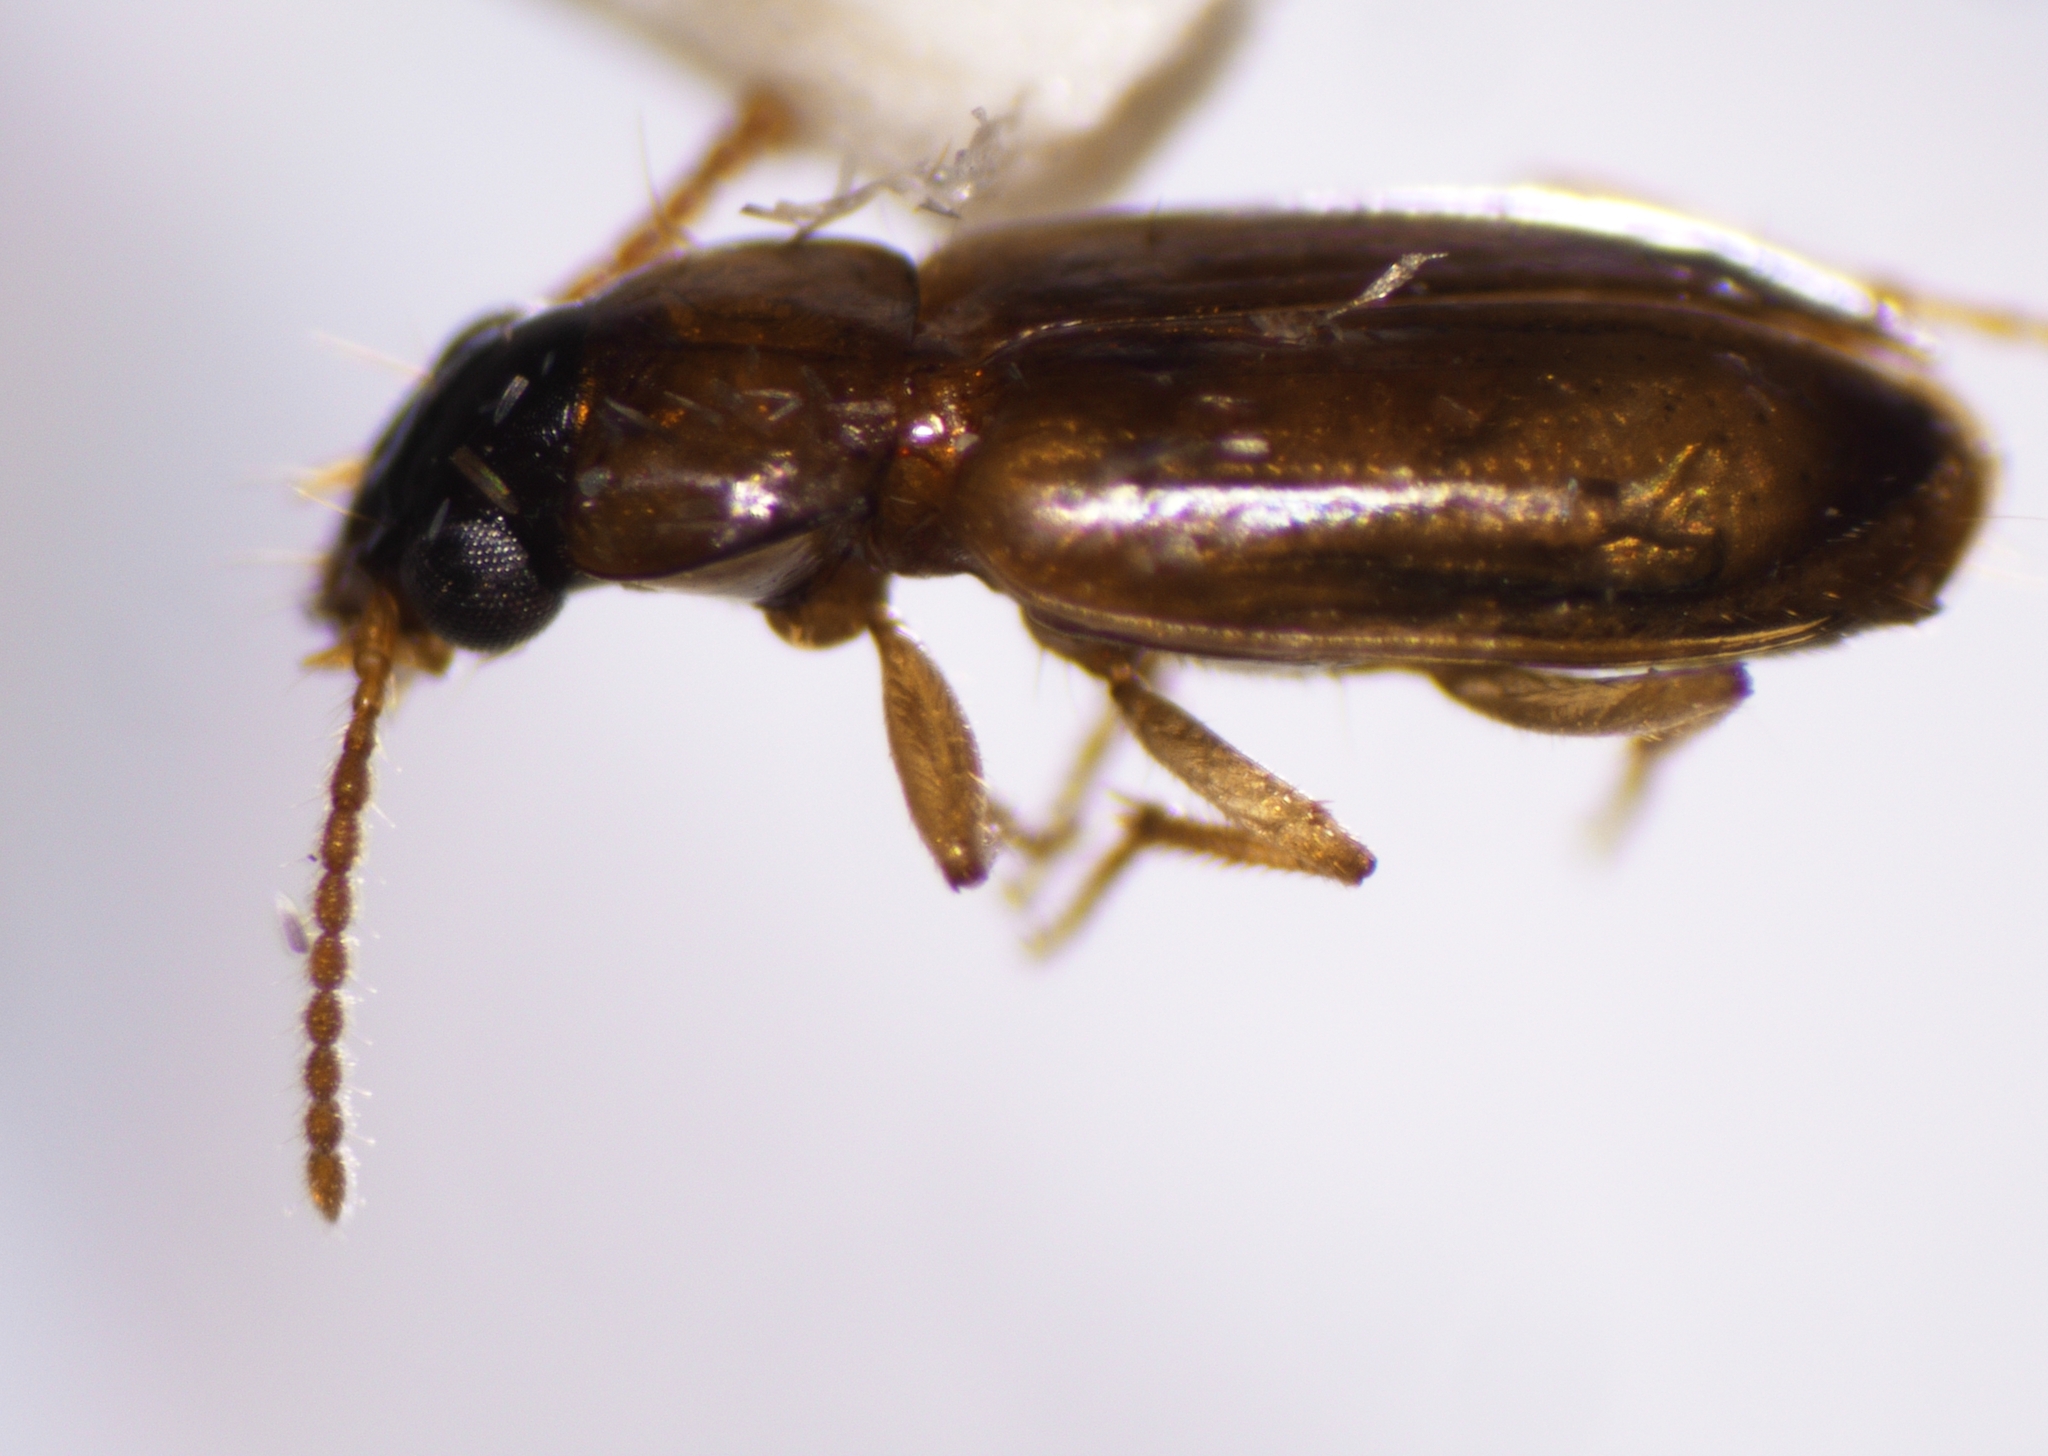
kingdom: Animalia
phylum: Arthropoda
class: Insecta
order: Coleoptera
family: Carabidae
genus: Perigona
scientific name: Perigona nigriceps
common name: Tawny harp ground beetle
